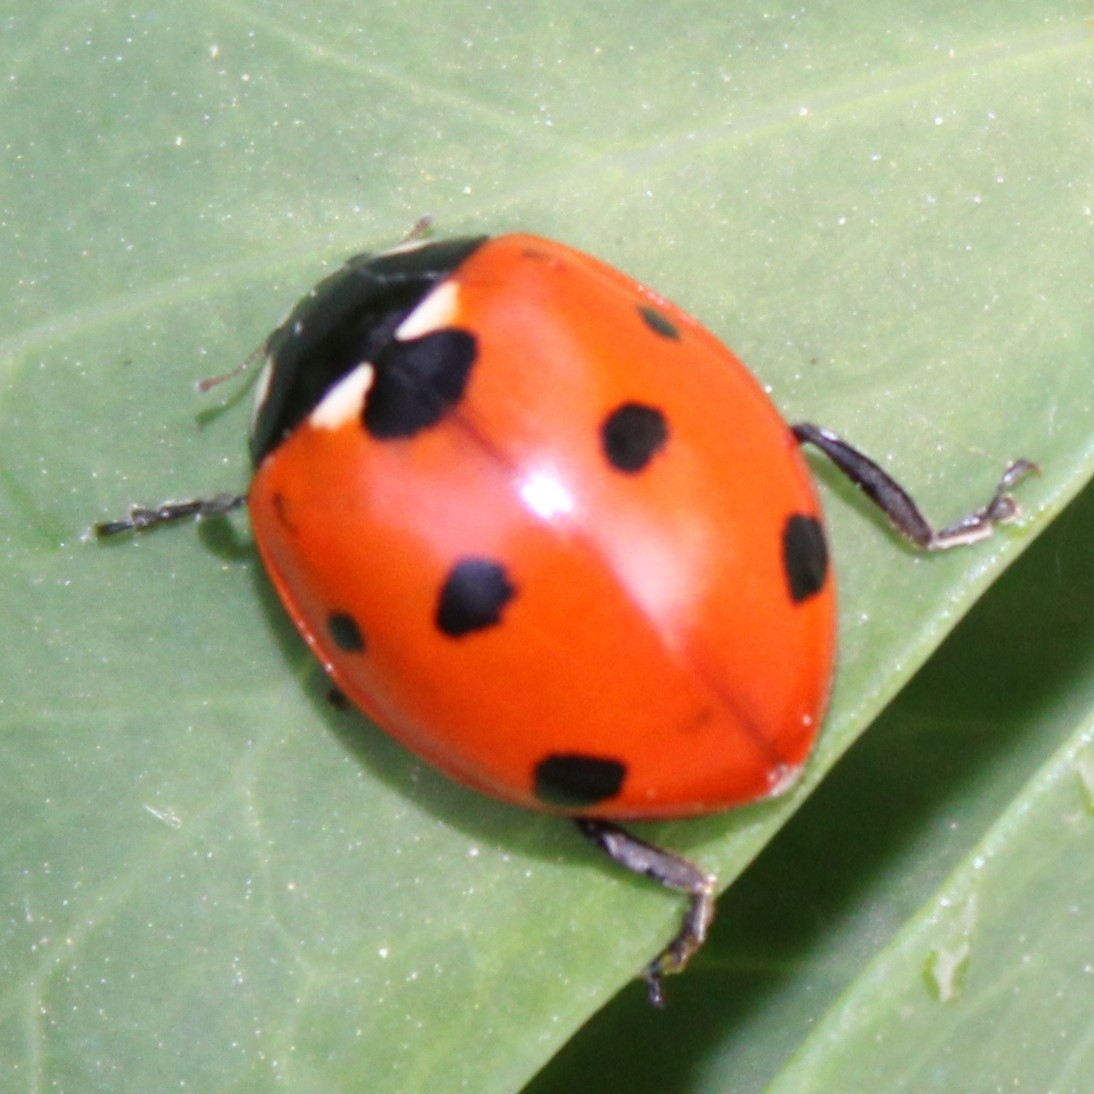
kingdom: Animalia
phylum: Arthropoda
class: Insecta
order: Coleoptera
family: Coccinellidae
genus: Coccinella
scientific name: Coccinella septempunctata
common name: Sevenspotted lady beetle
